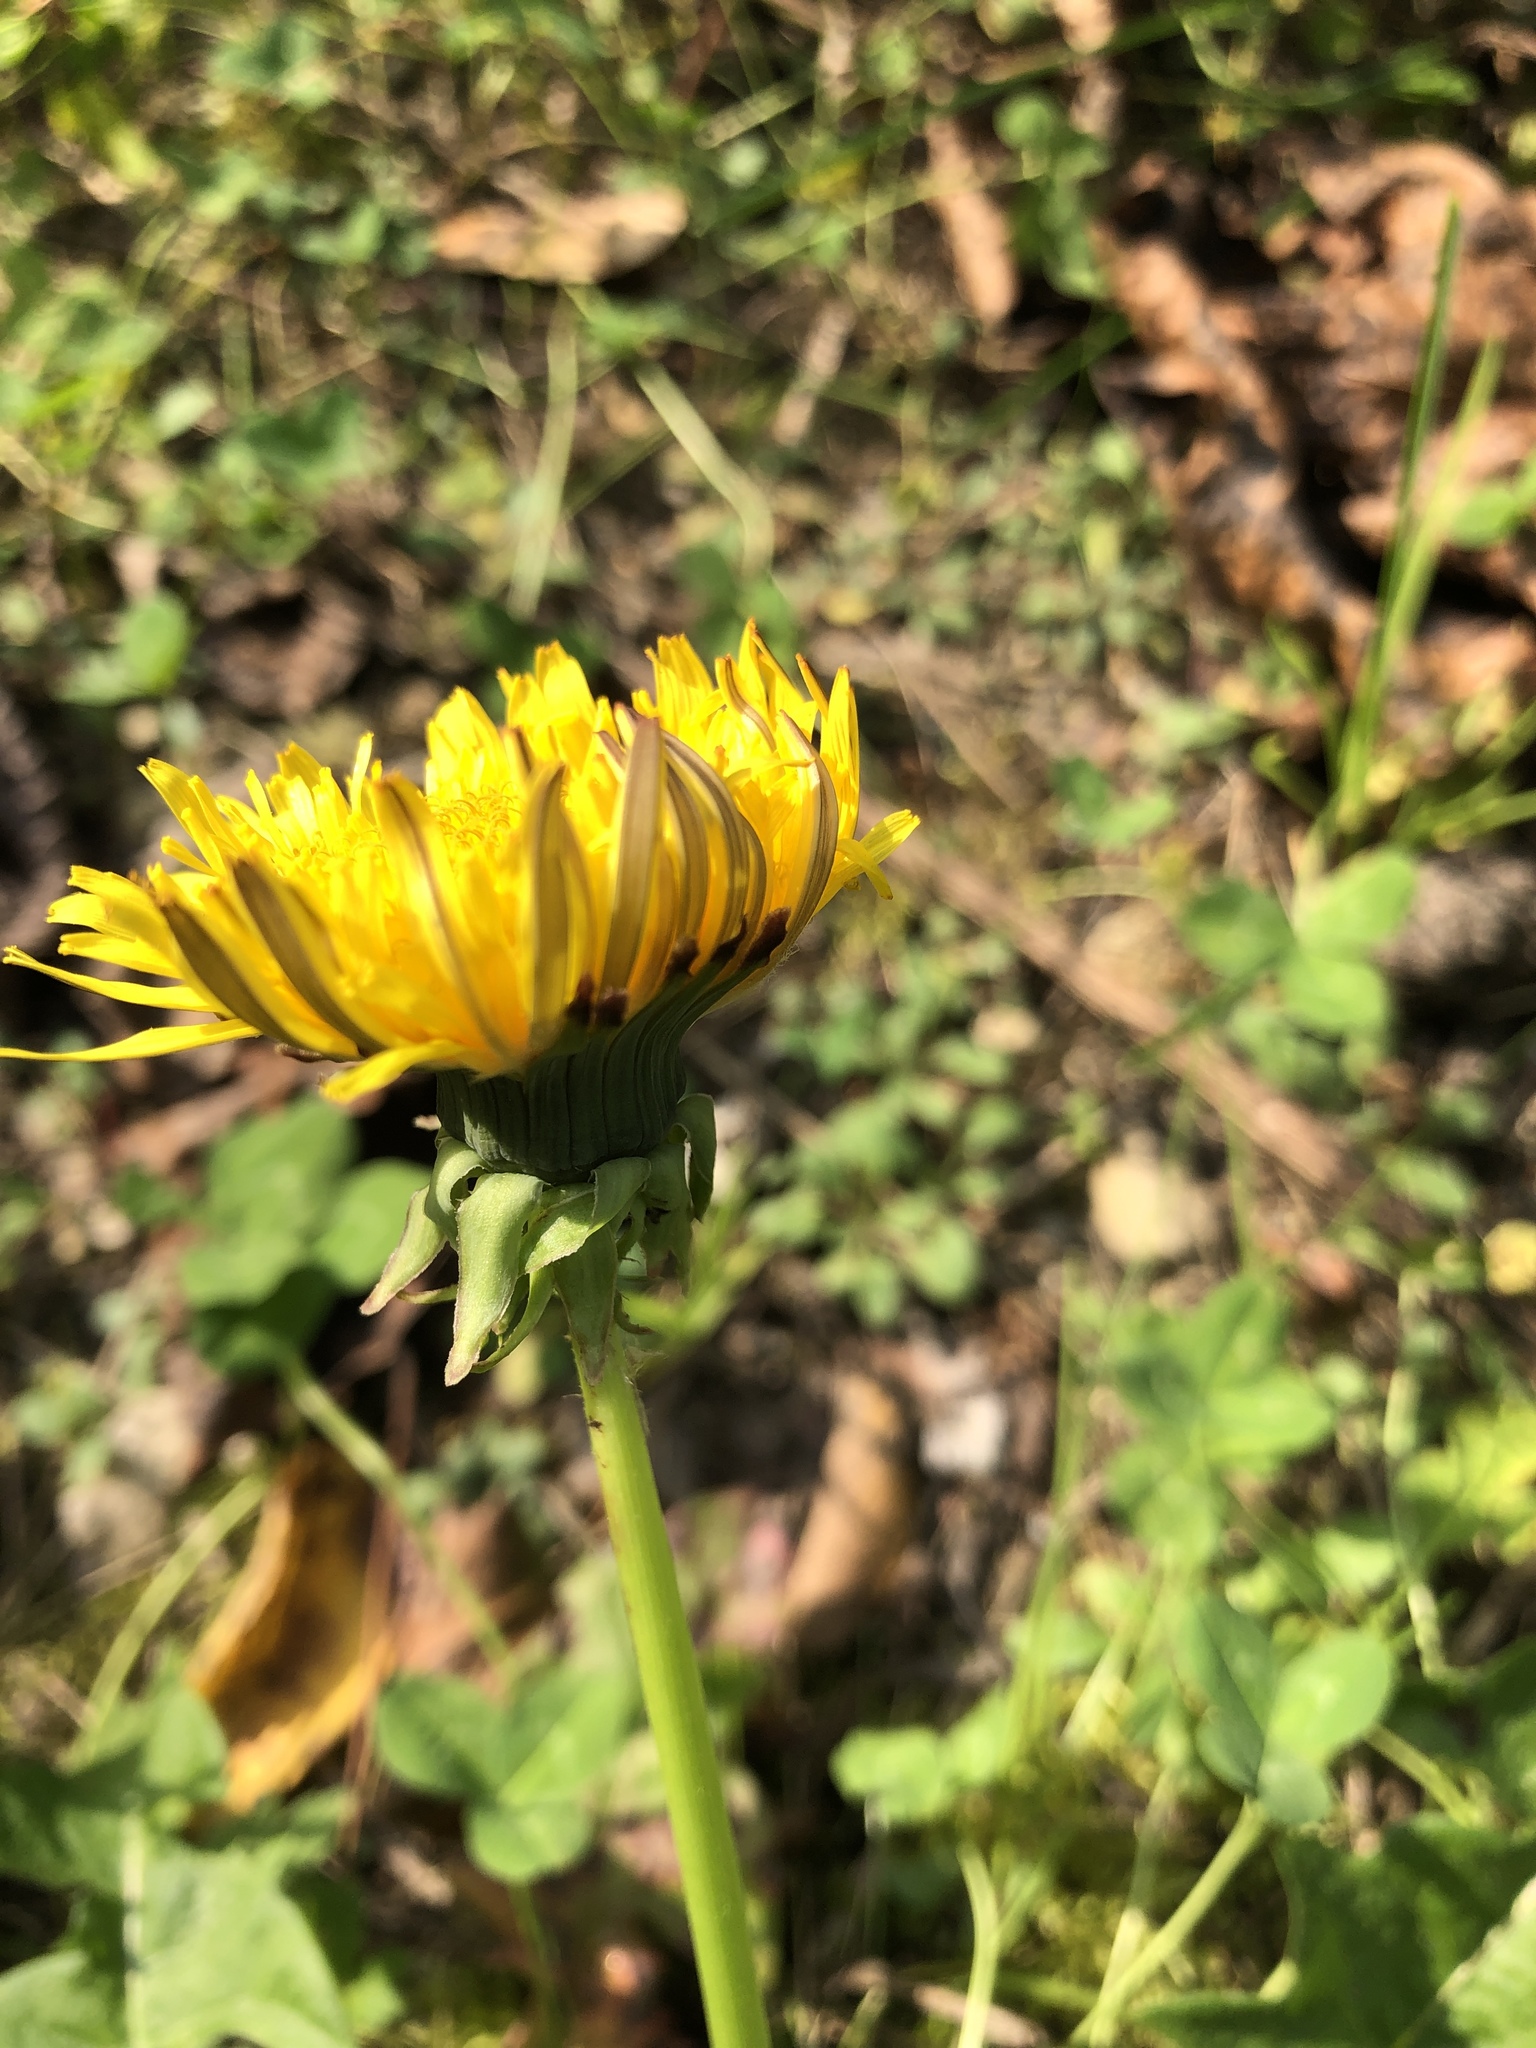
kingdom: Plantae
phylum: Tracheophyta
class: Magnoliopsida
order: Asterales
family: Asteraceae
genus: Taraxacum
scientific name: Taraxacum officinale
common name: Common dandelion
